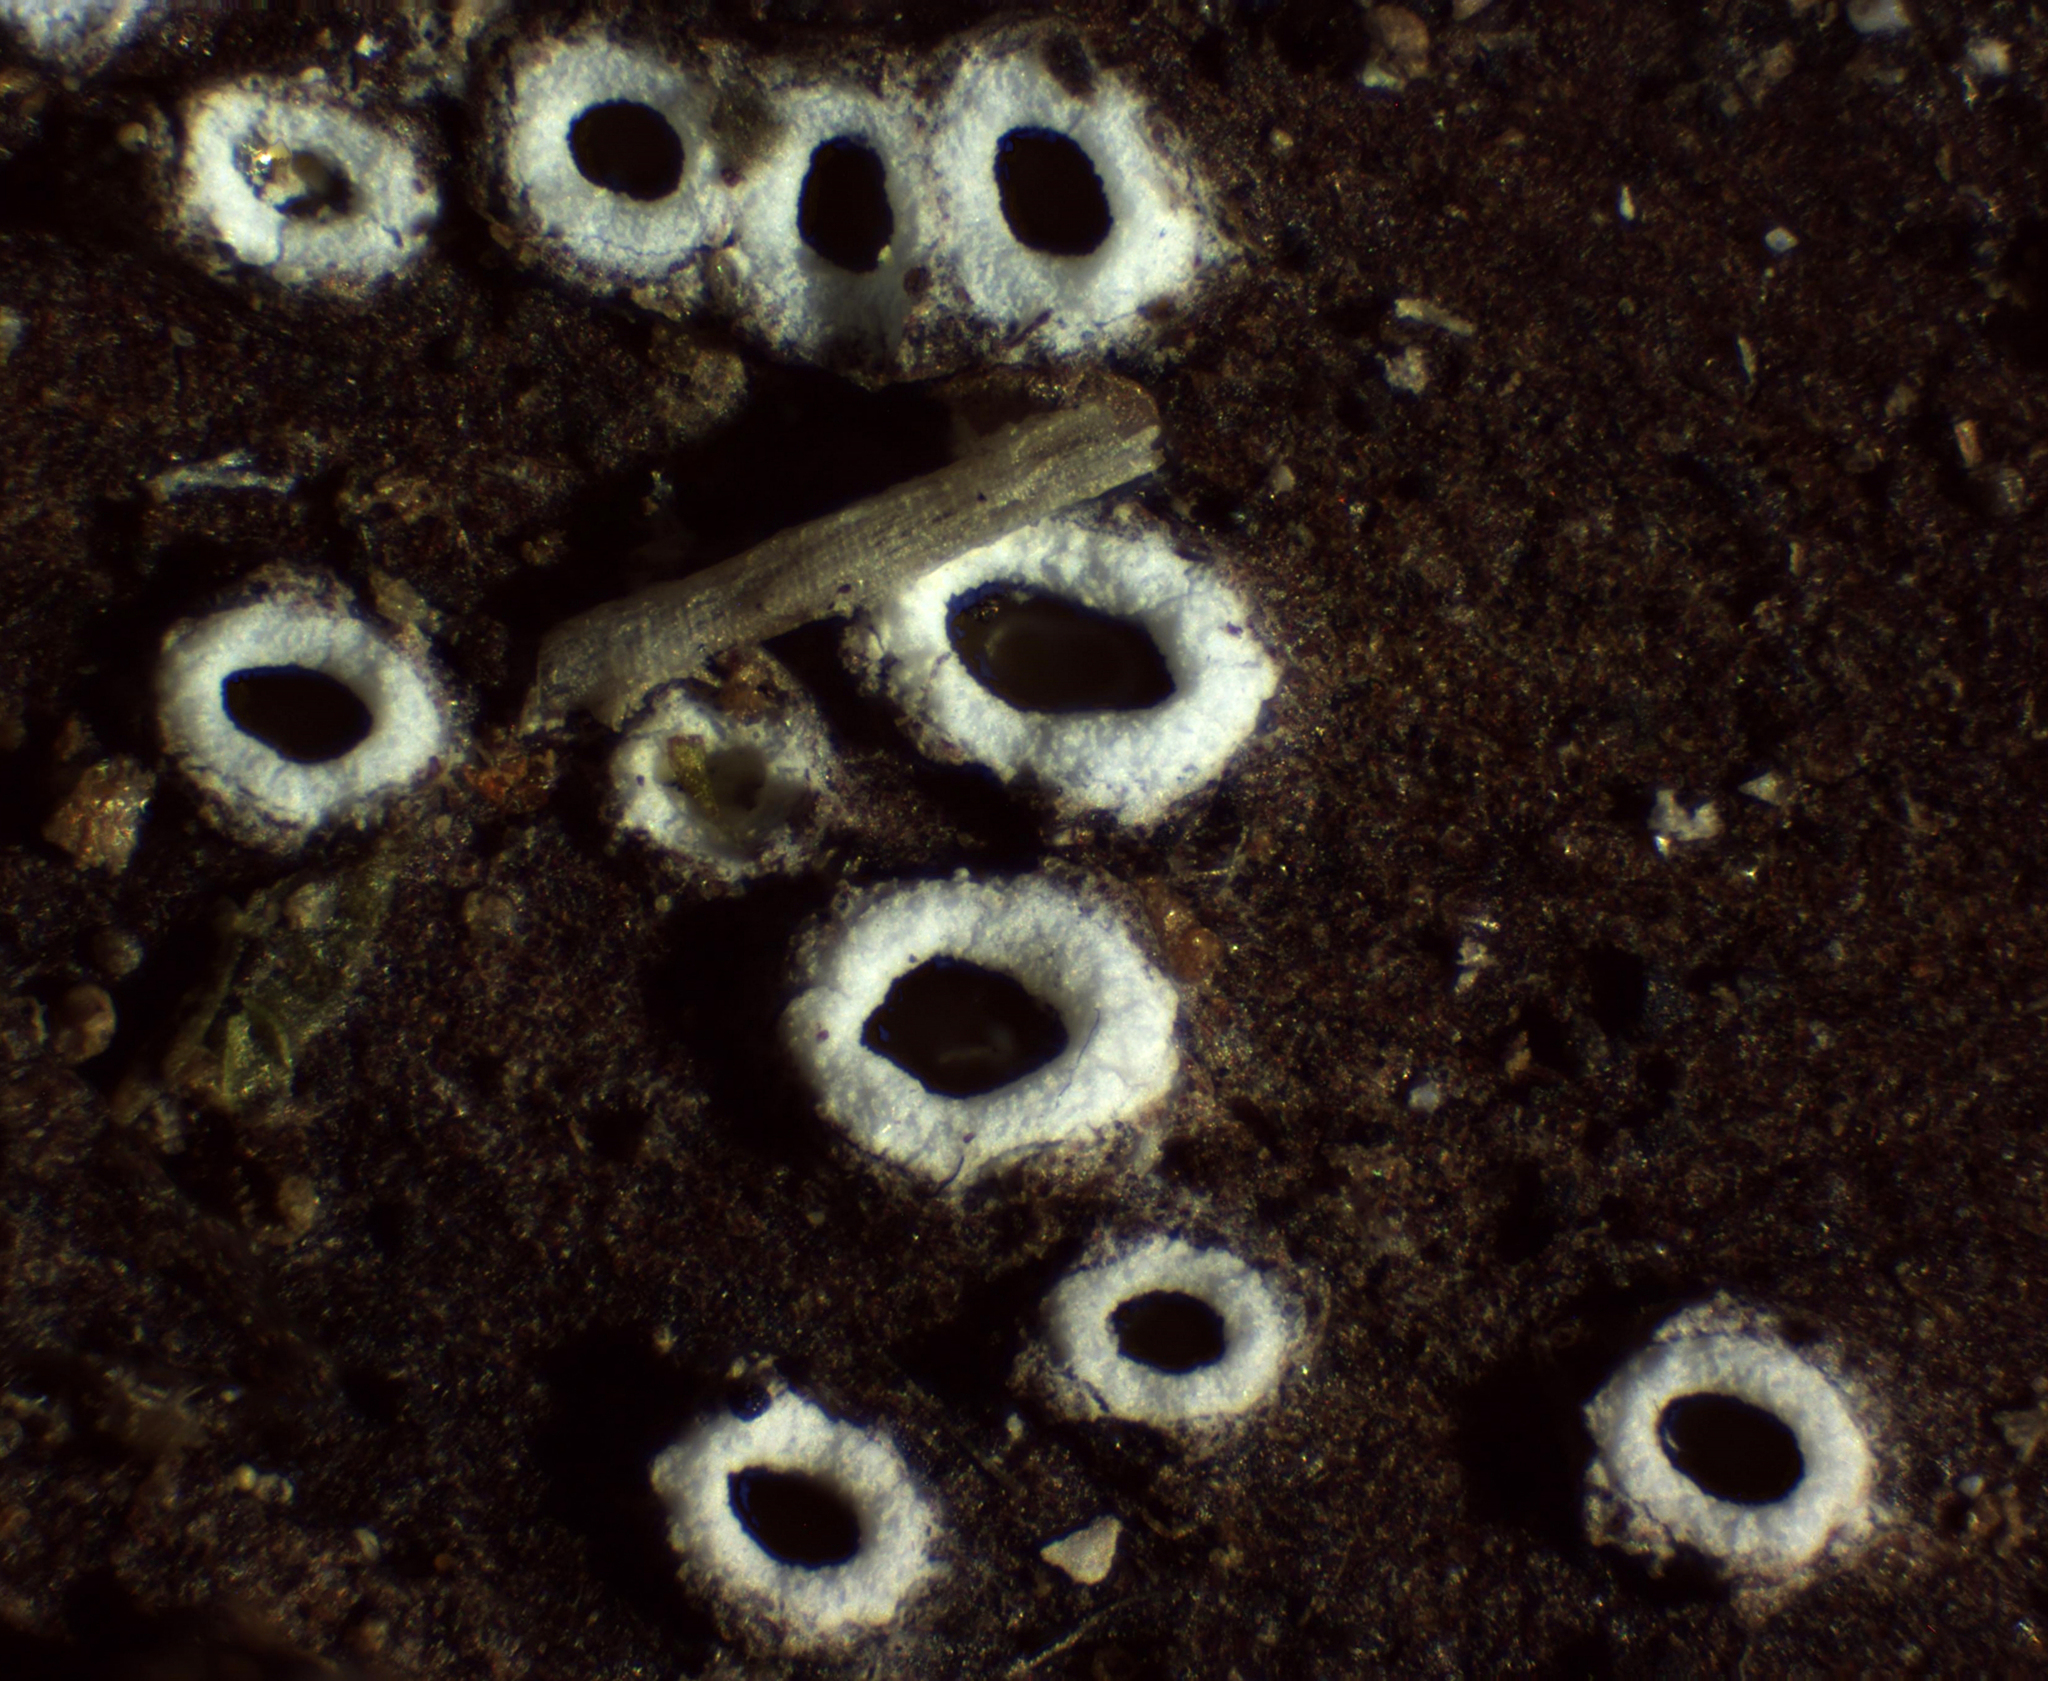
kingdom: Fungi
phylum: Ascomycota
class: Lecanoromycetes
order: Ostropales
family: Stictidaceae
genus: Stictis
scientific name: Stictis radiata
